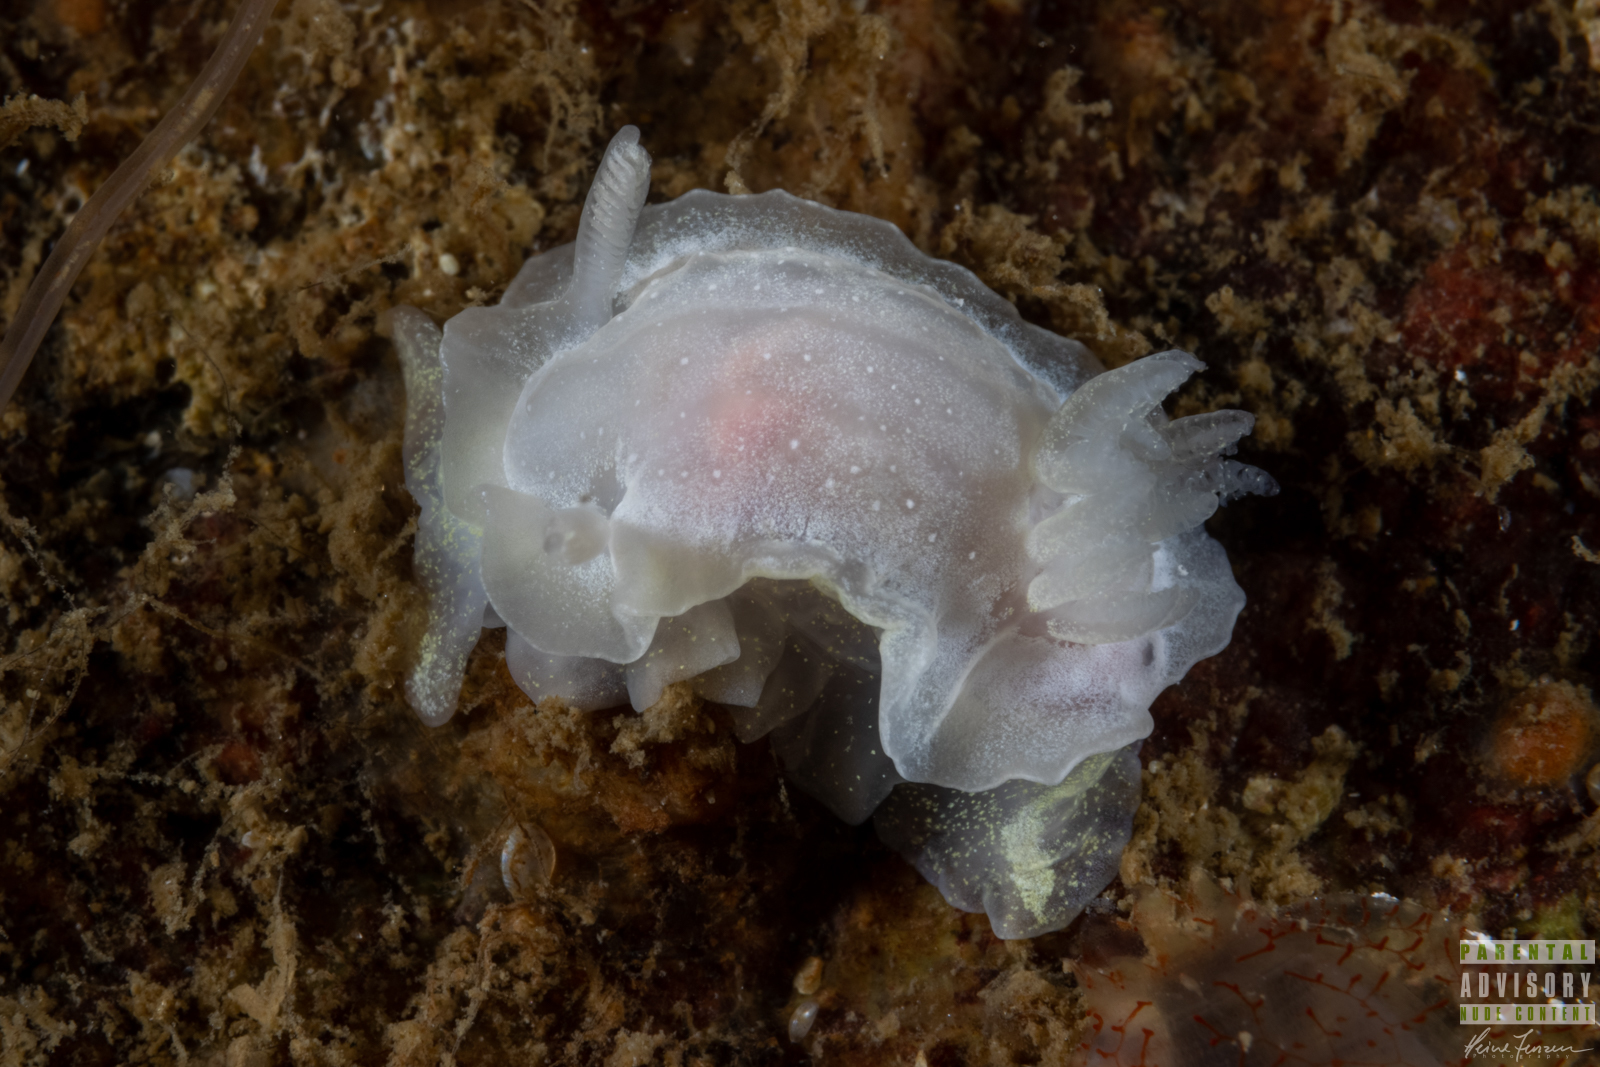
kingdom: Animalia
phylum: Mollusca
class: Gastropoda
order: Nudibranchia
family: Goniodorididae
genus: Okenia
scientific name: Okenia
